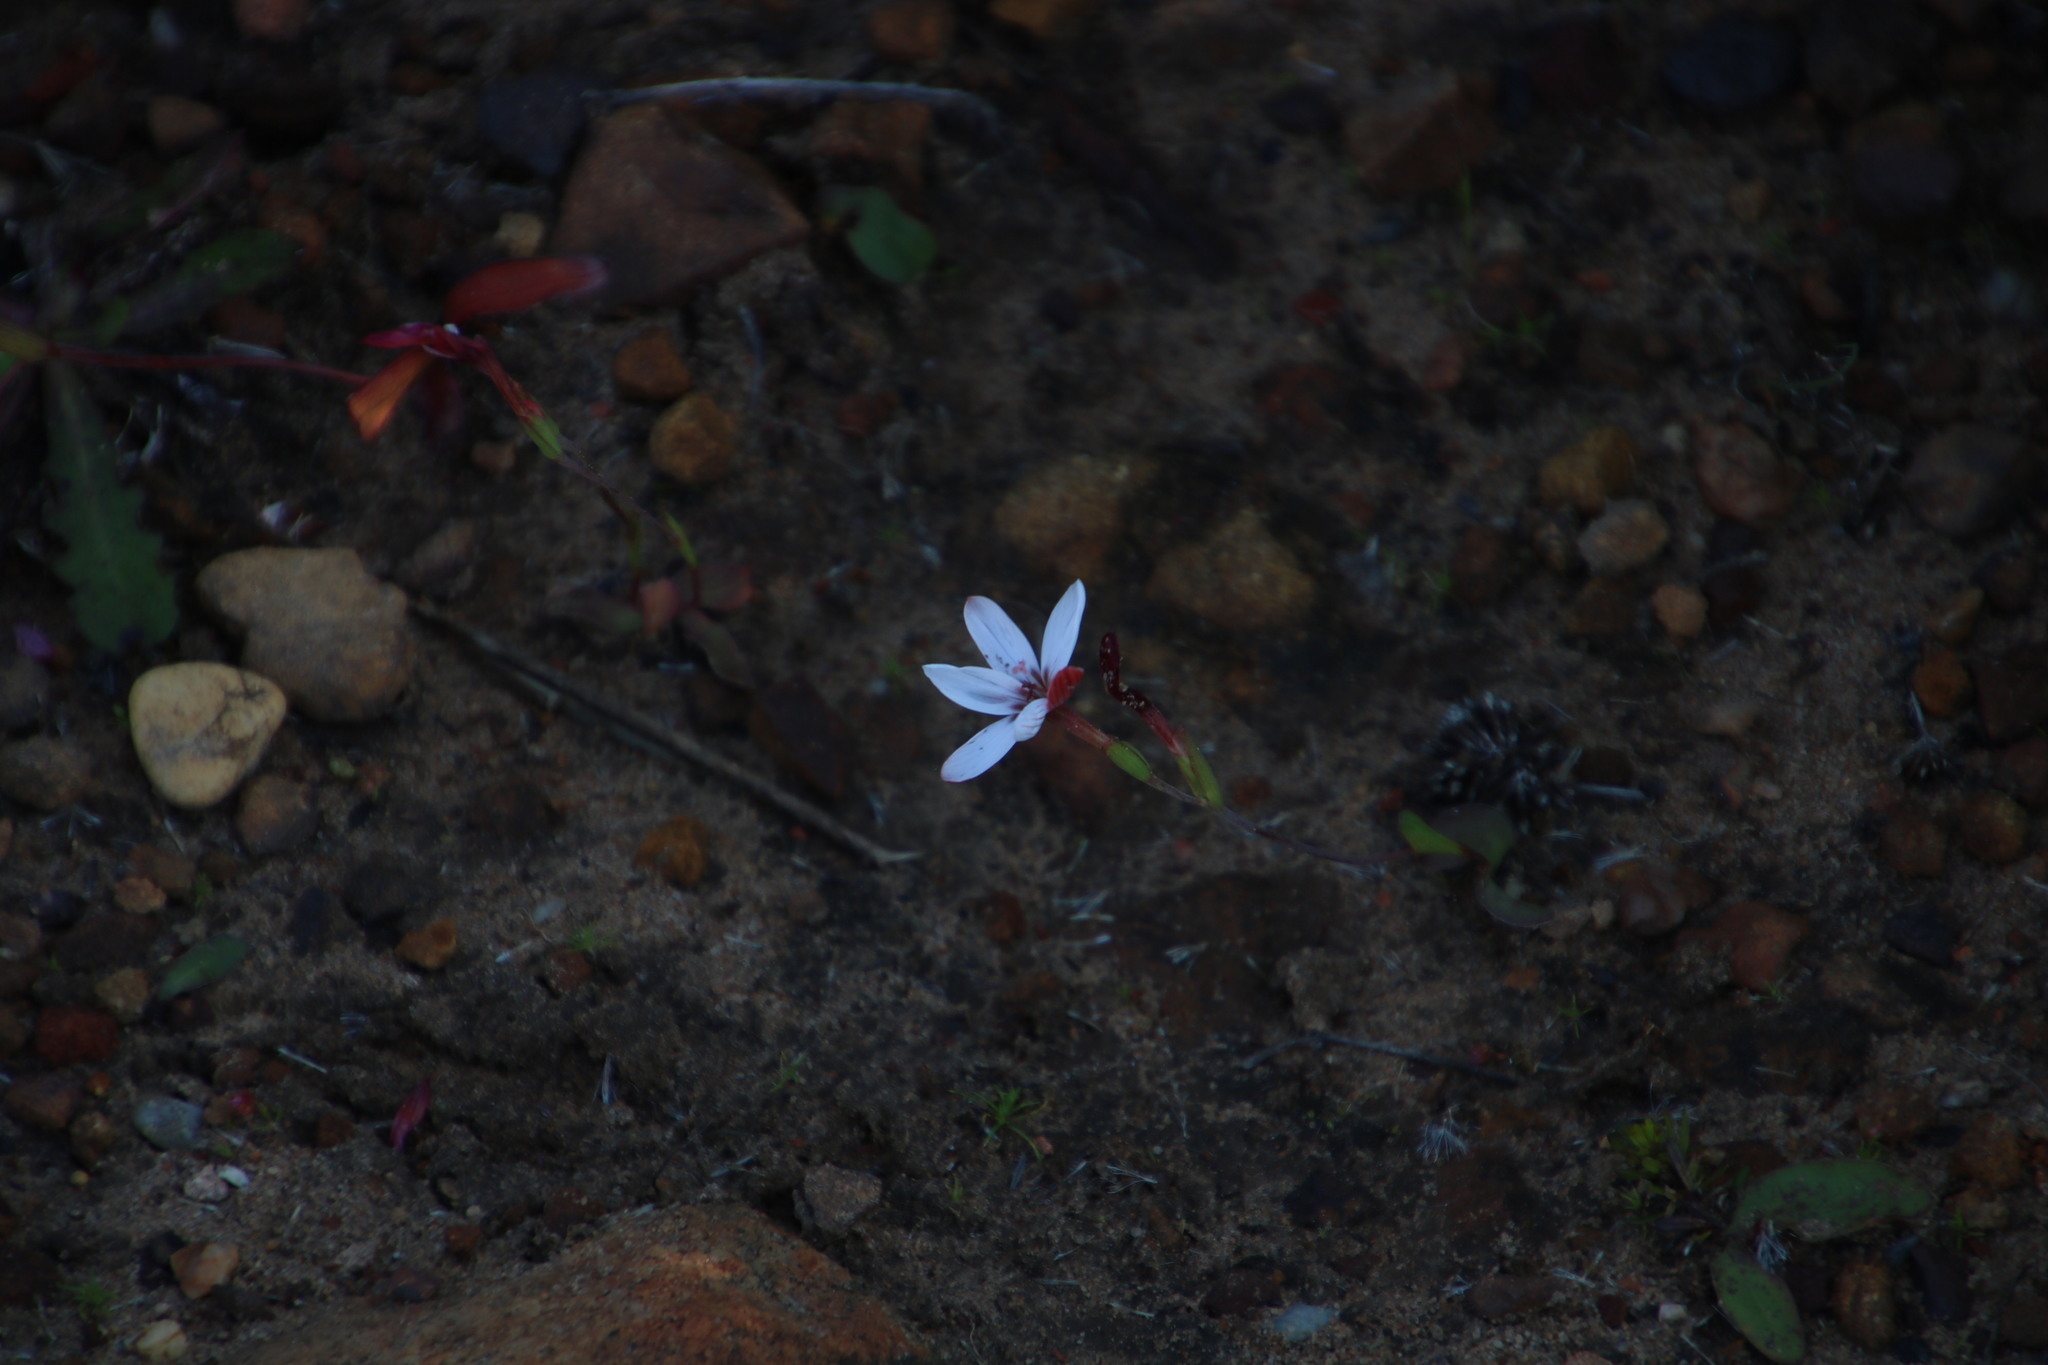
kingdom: Plantae
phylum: Tracheophyta
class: Liliopsida
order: Asparagales
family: Iridaceae
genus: Geissorhiza
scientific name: Geissorhiza ovata
